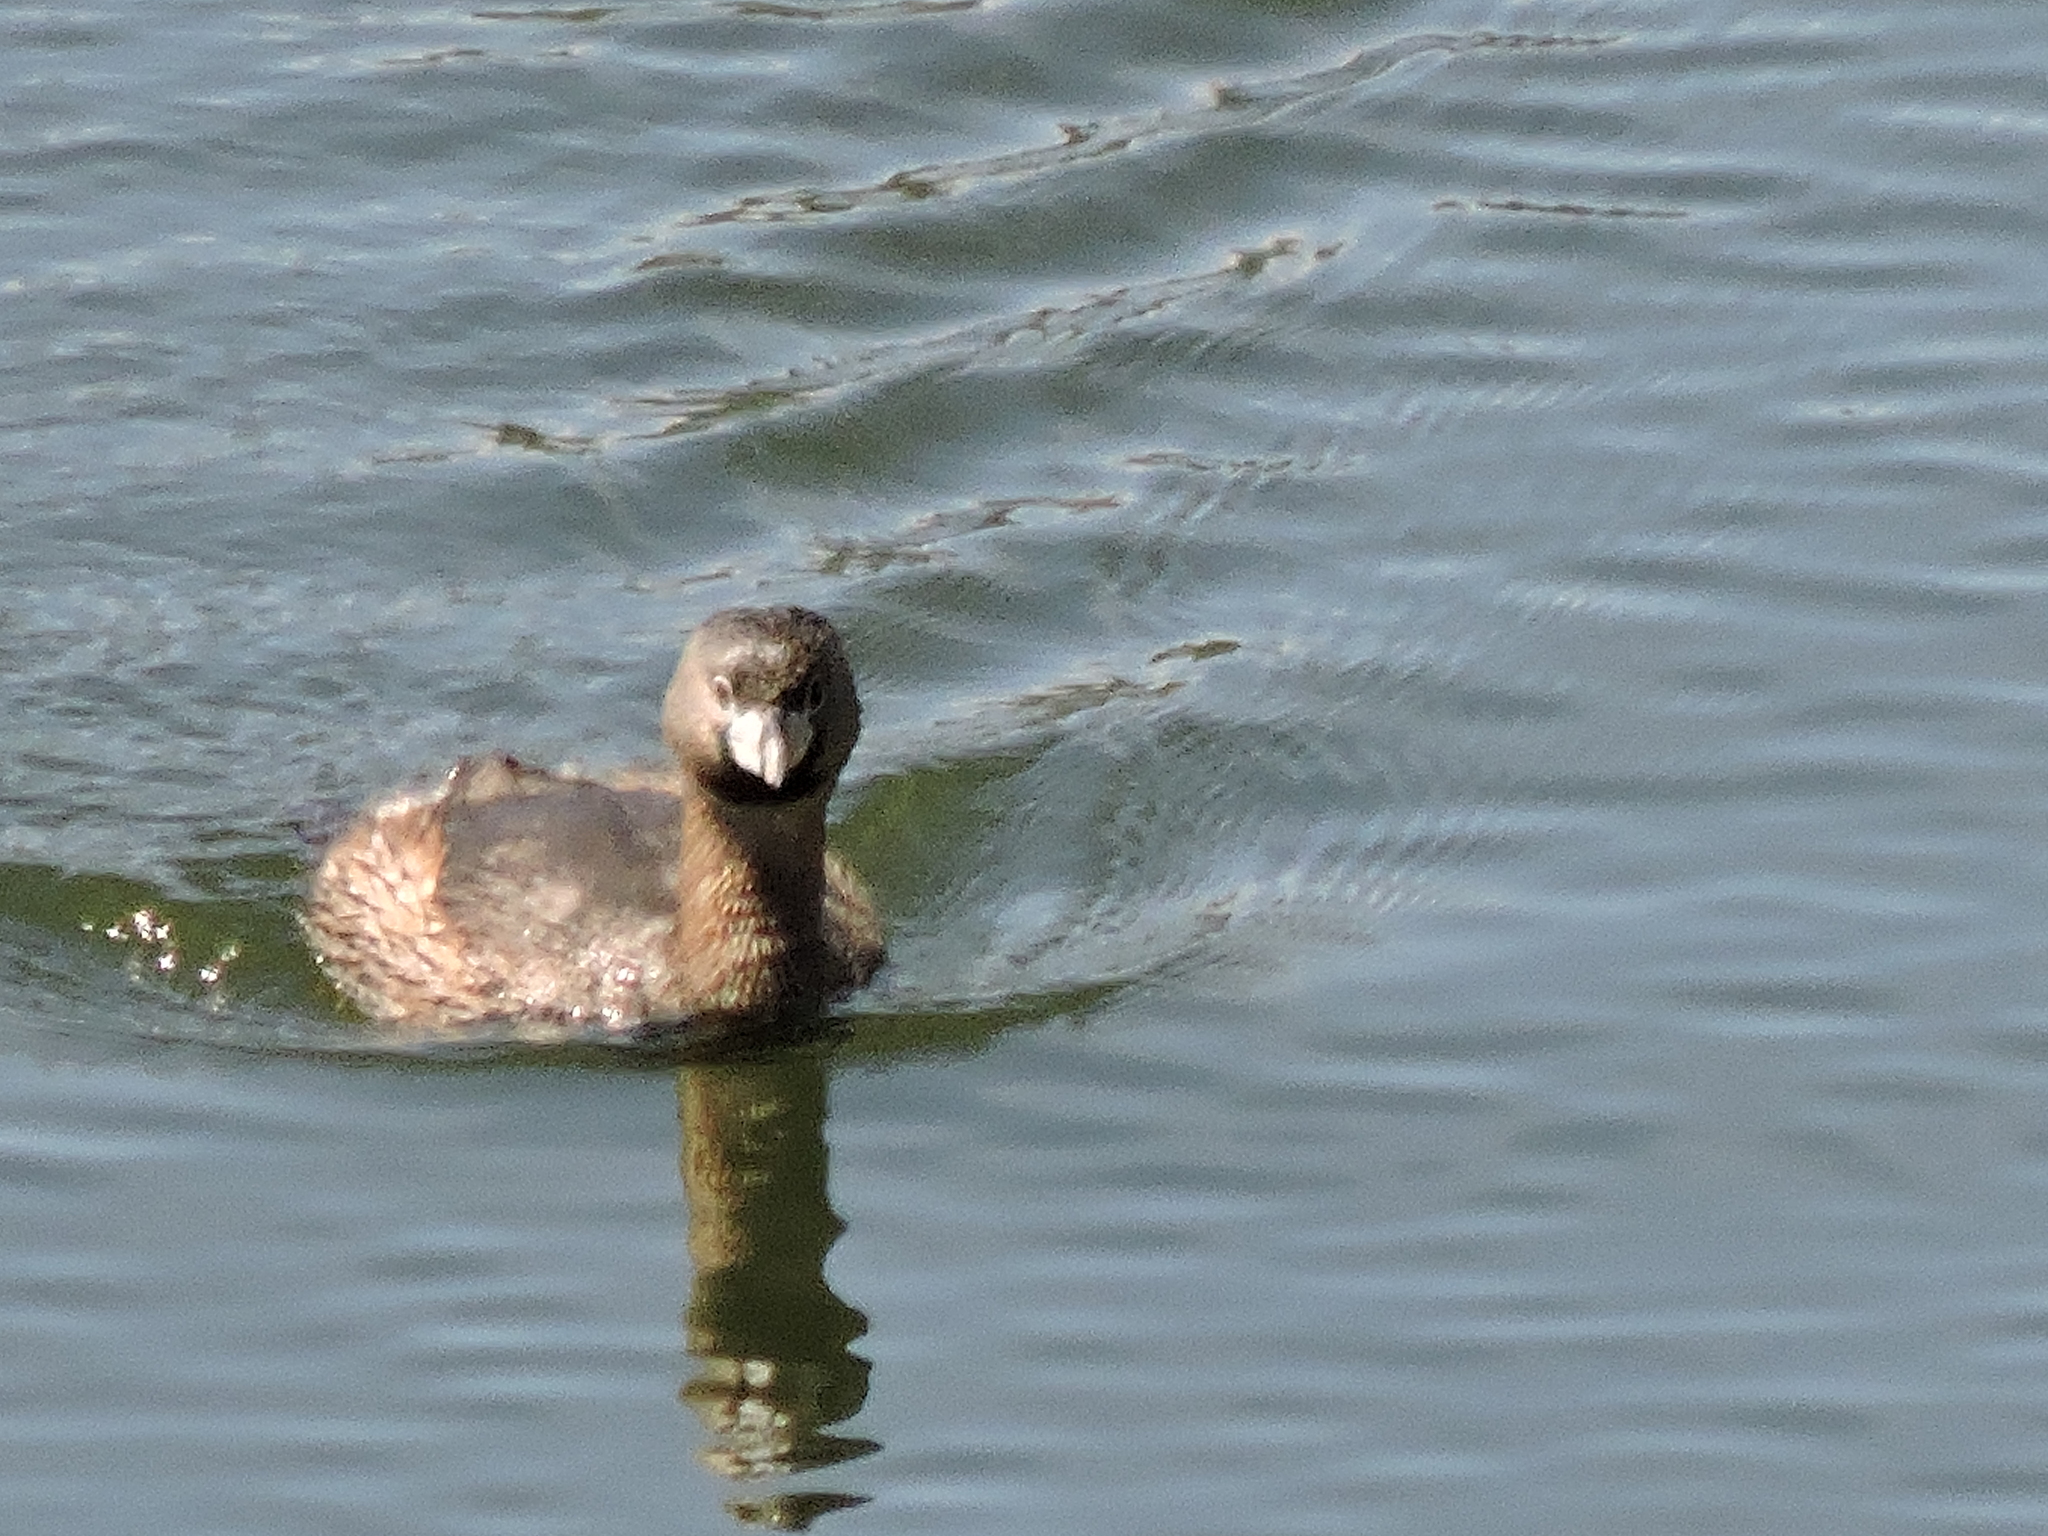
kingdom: Animalia
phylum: Chordata
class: Aves
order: Podicipediformes
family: Podicipedidae
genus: Podilymbus
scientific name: Podilymbus podiceps
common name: Pied-billed grebe
